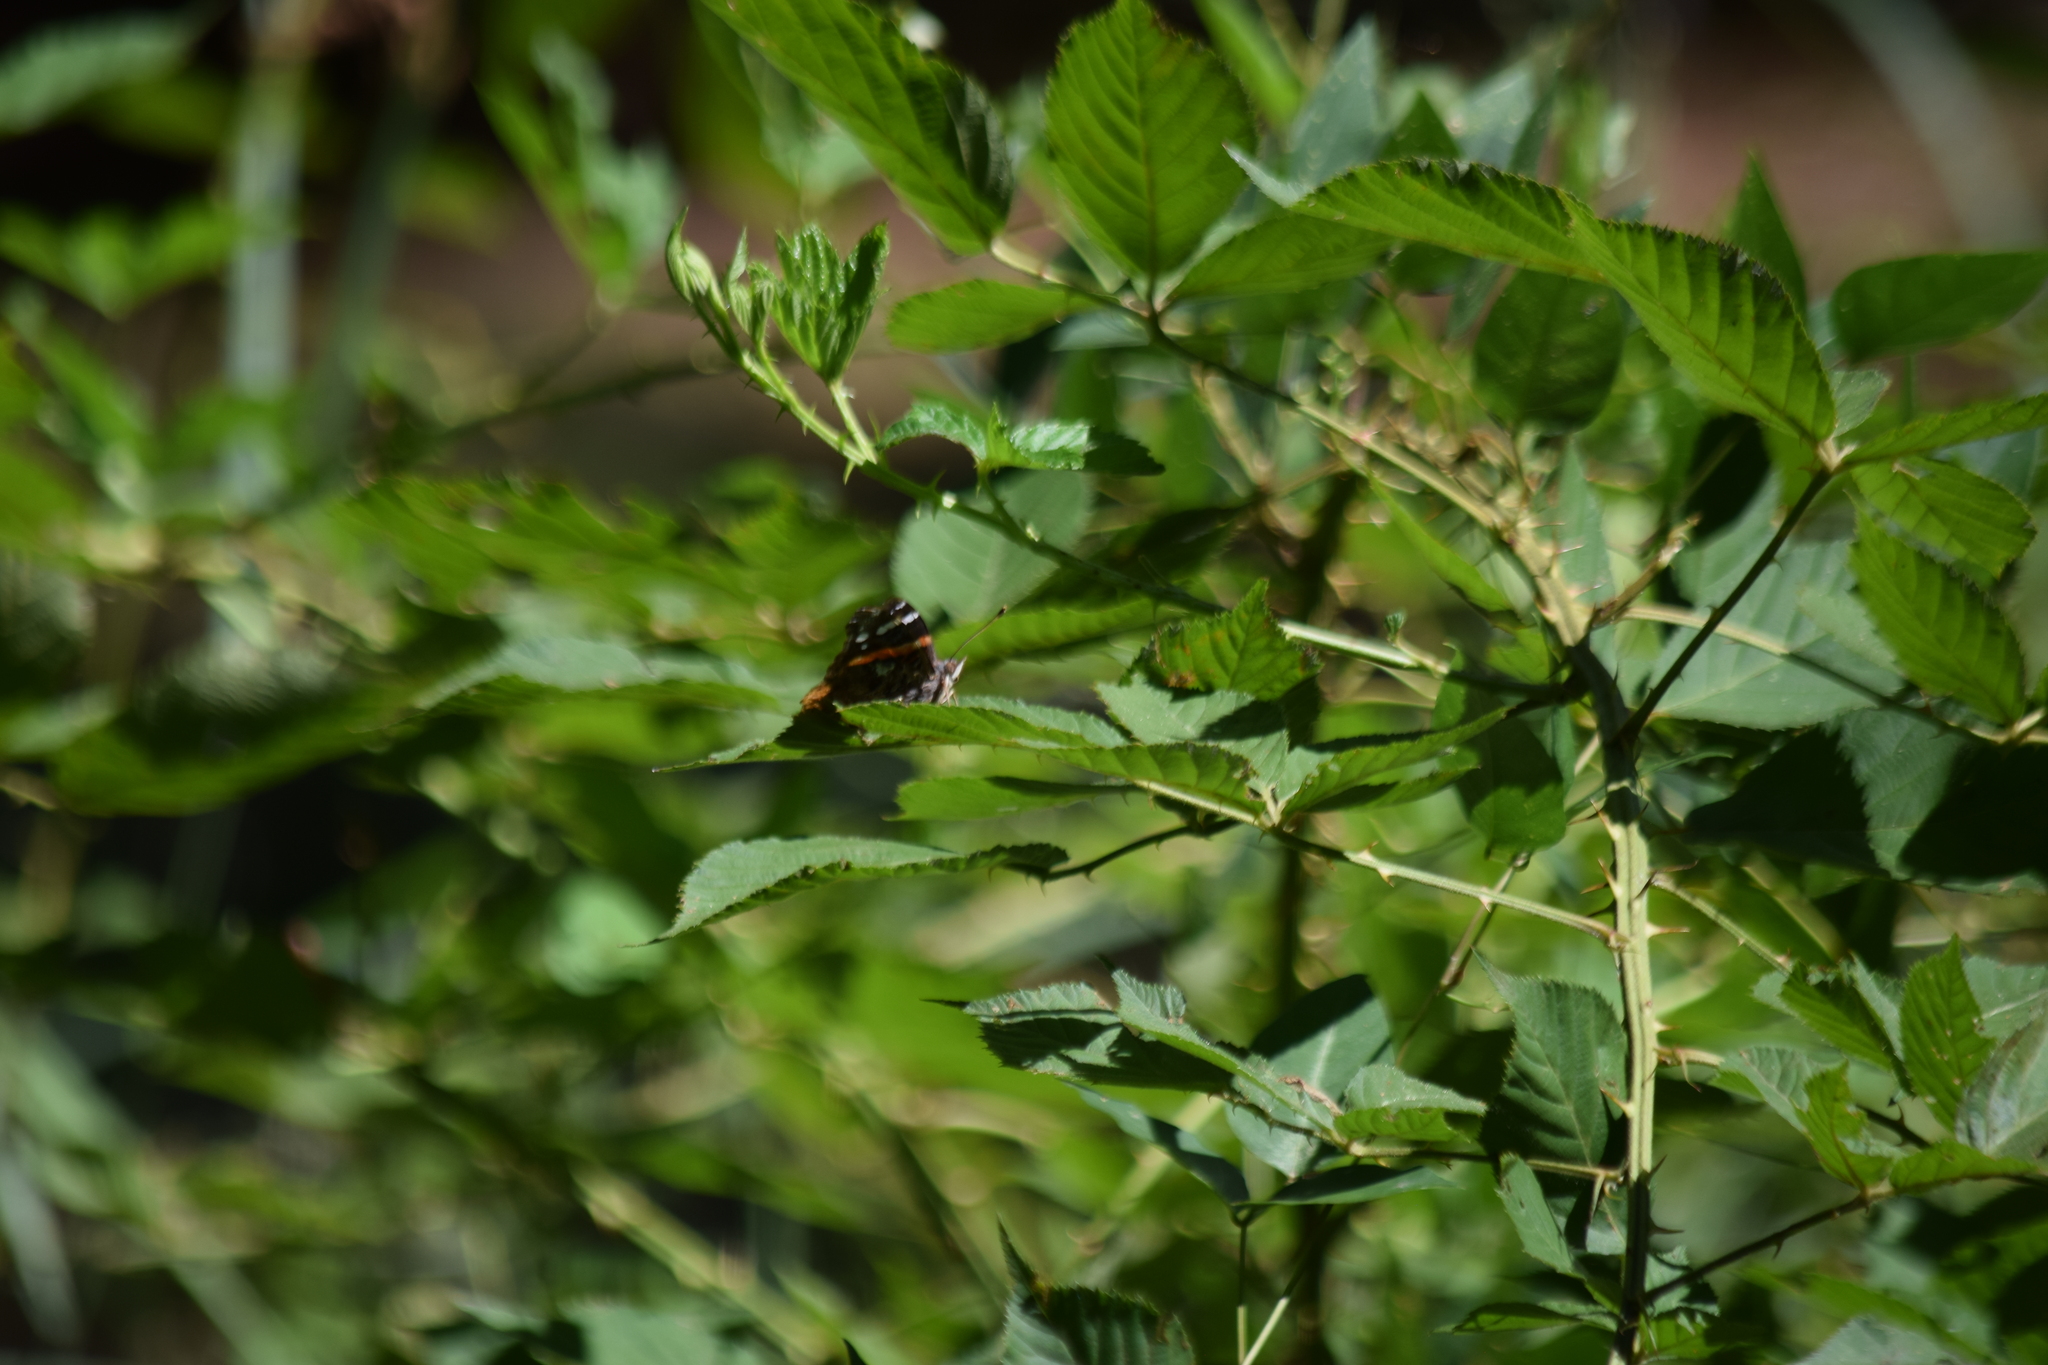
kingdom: Animalia
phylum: Arthropoda
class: Insecta
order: Lepidoptera
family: Nymphalidae
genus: Vanessa
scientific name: Vanessa atalanta
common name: Red admiral
